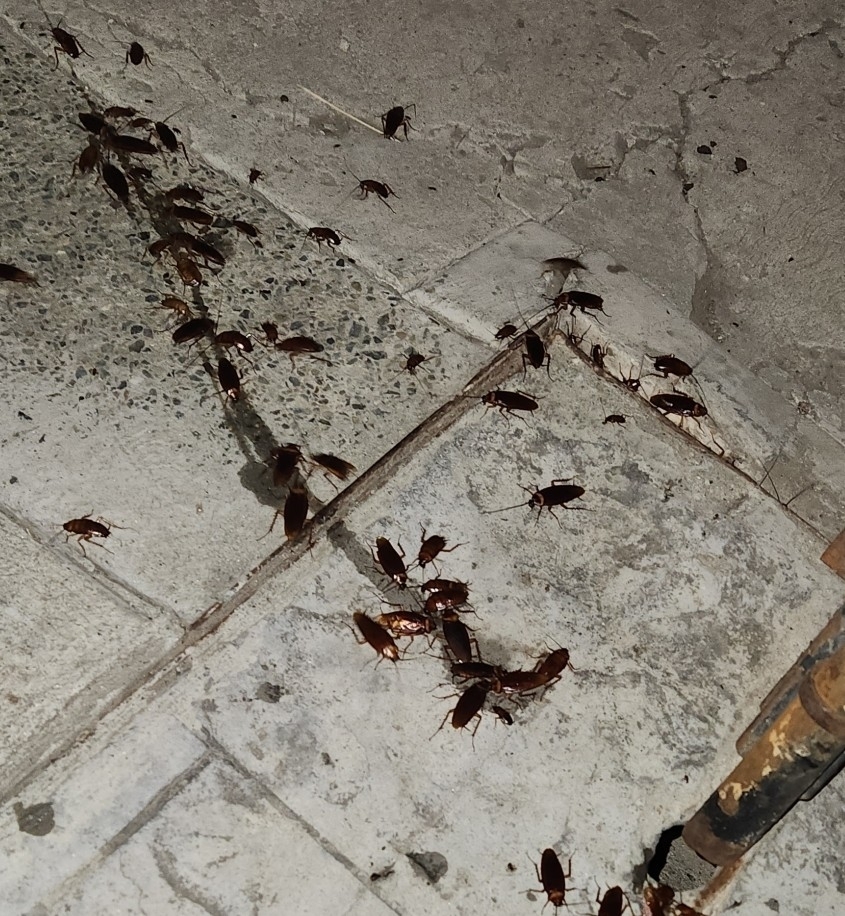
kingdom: Animalia
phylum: Arthropoda
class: Insecta
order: Blattodea
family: Blattidae
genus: Periplaneta
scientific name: Periplaneta americana
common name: American cockroach
